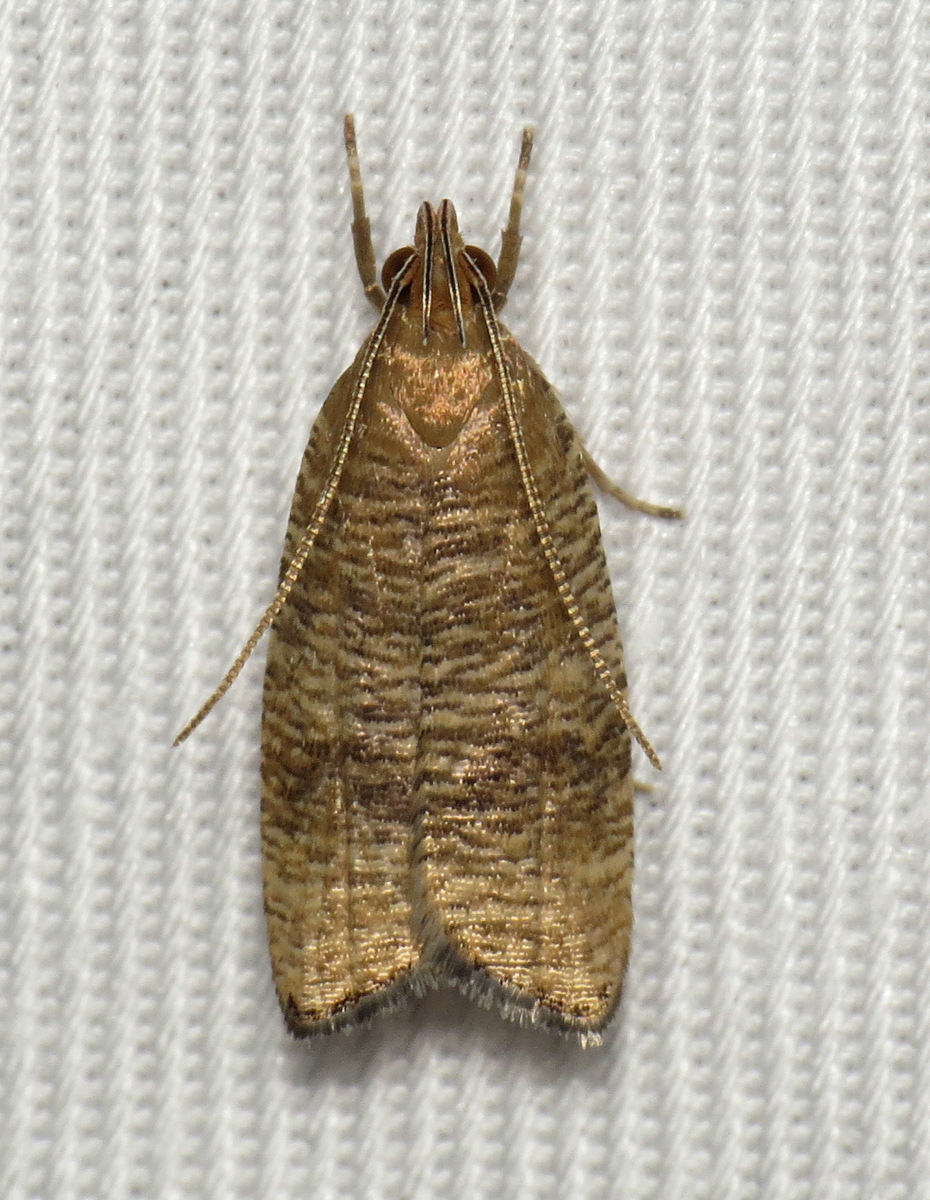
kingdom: Animalia
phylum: Arthropoda
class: Insecta
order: Lepidoptera
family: Depressariidae
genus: Psilocorsis
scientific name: Psilocorsis cryptolechiella
